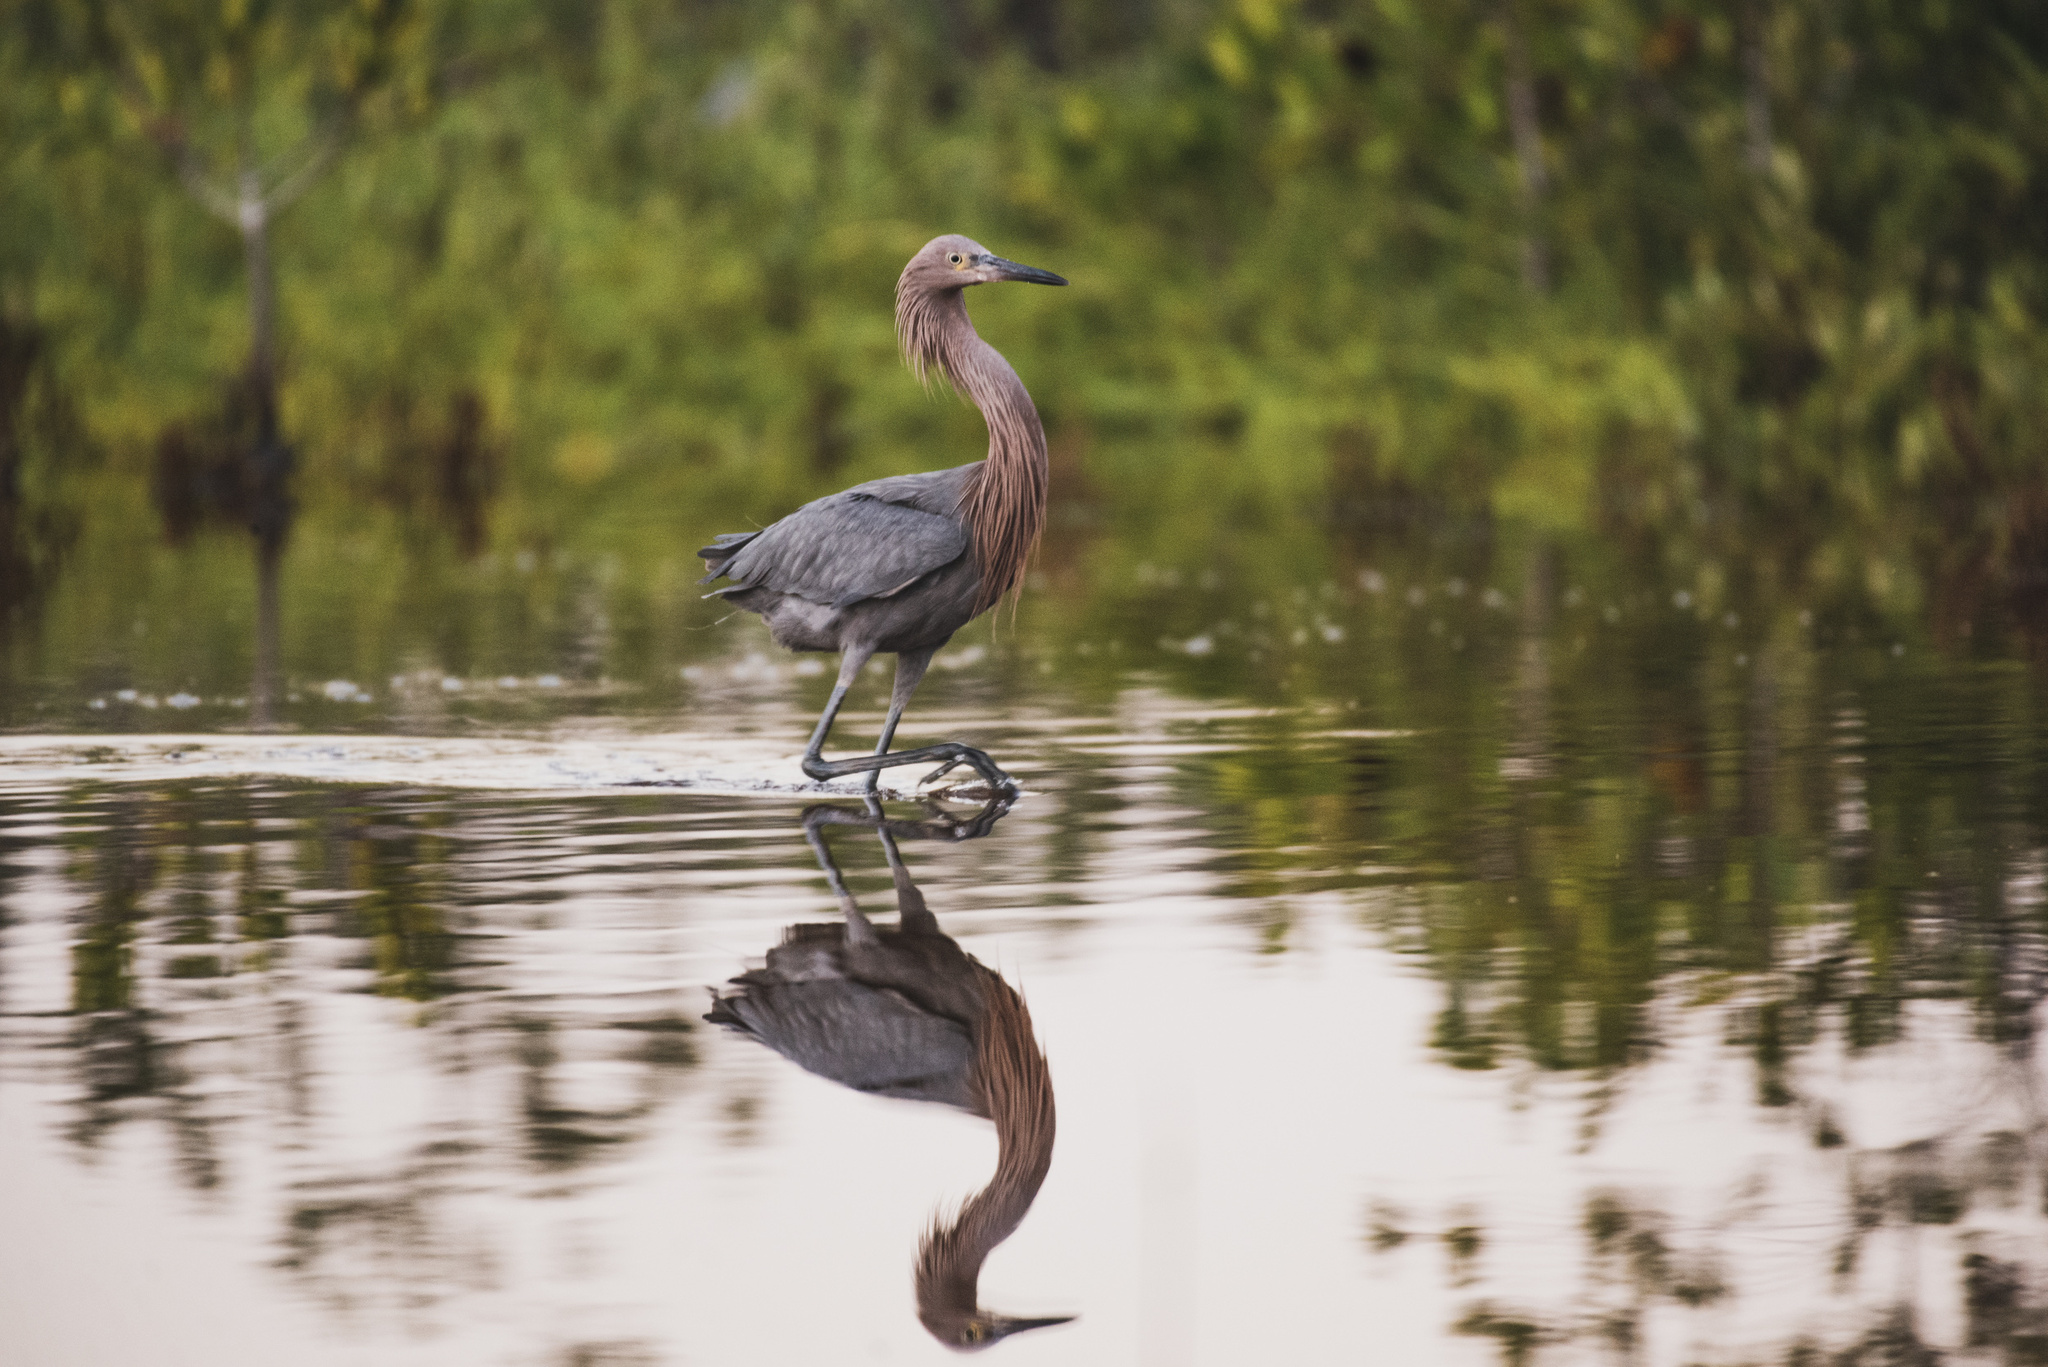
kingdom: Animalia
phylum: Chordata
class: Aves
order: Pelecaniformes
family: Ardeidae
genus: Egretta
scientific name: Egretta rufescens
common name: Reddish egret
